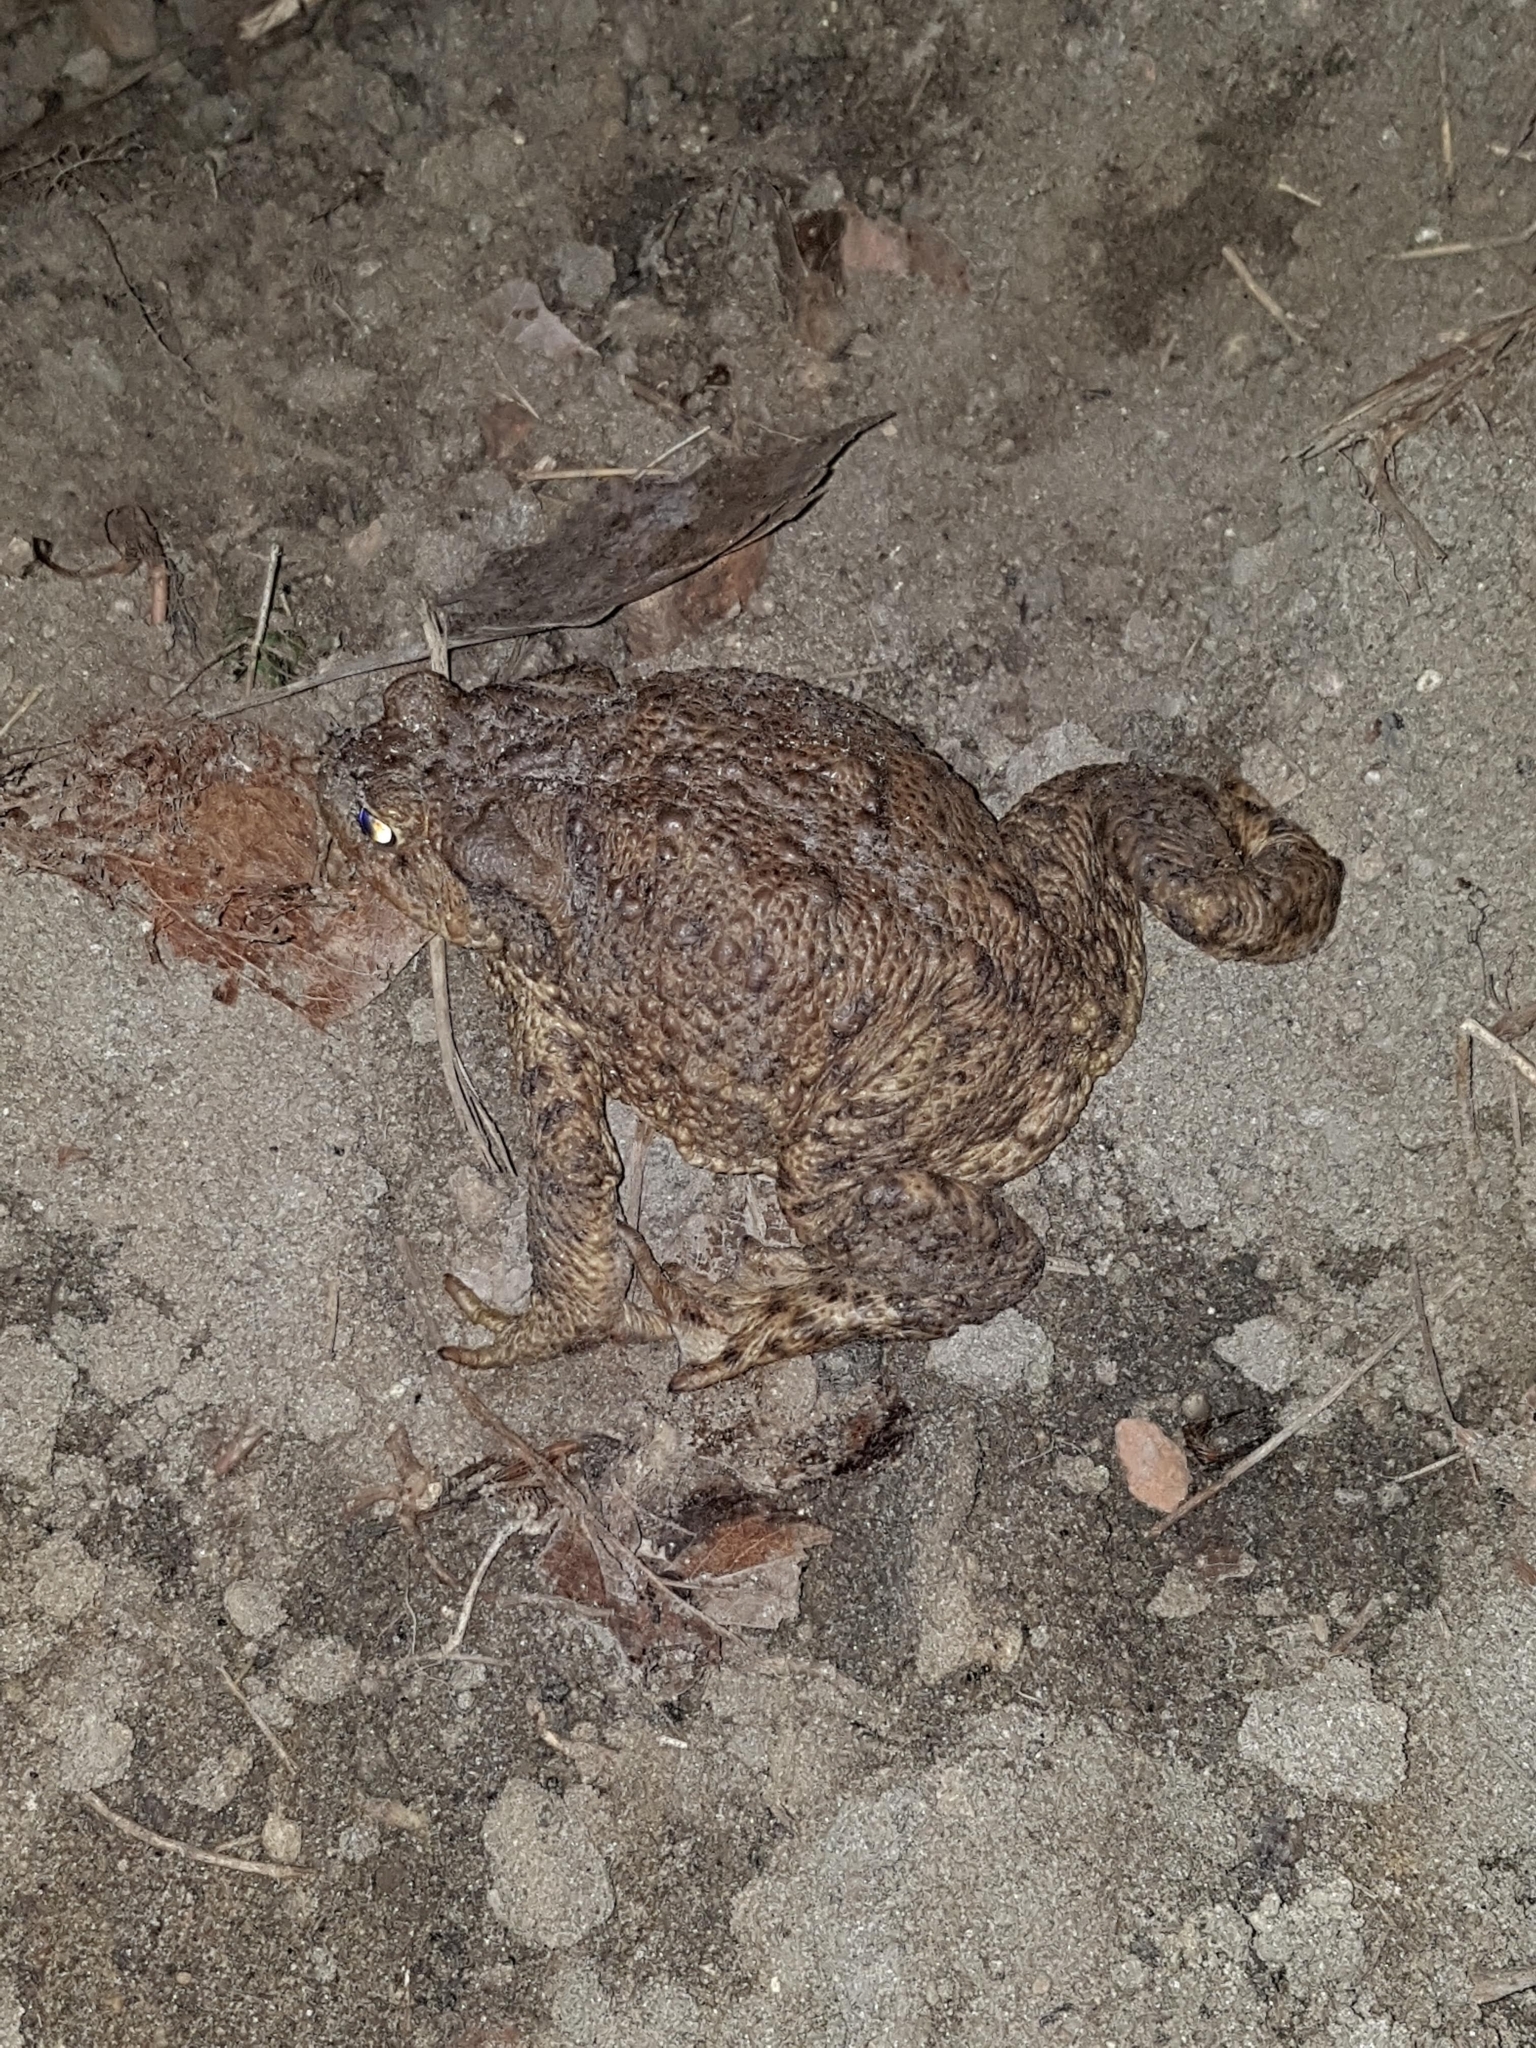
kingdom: Animalia
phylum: Chordata
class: Amphibia
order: Anura
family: Bufonidae
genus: Bufo
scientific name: Bufo bufo
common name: Common toad
